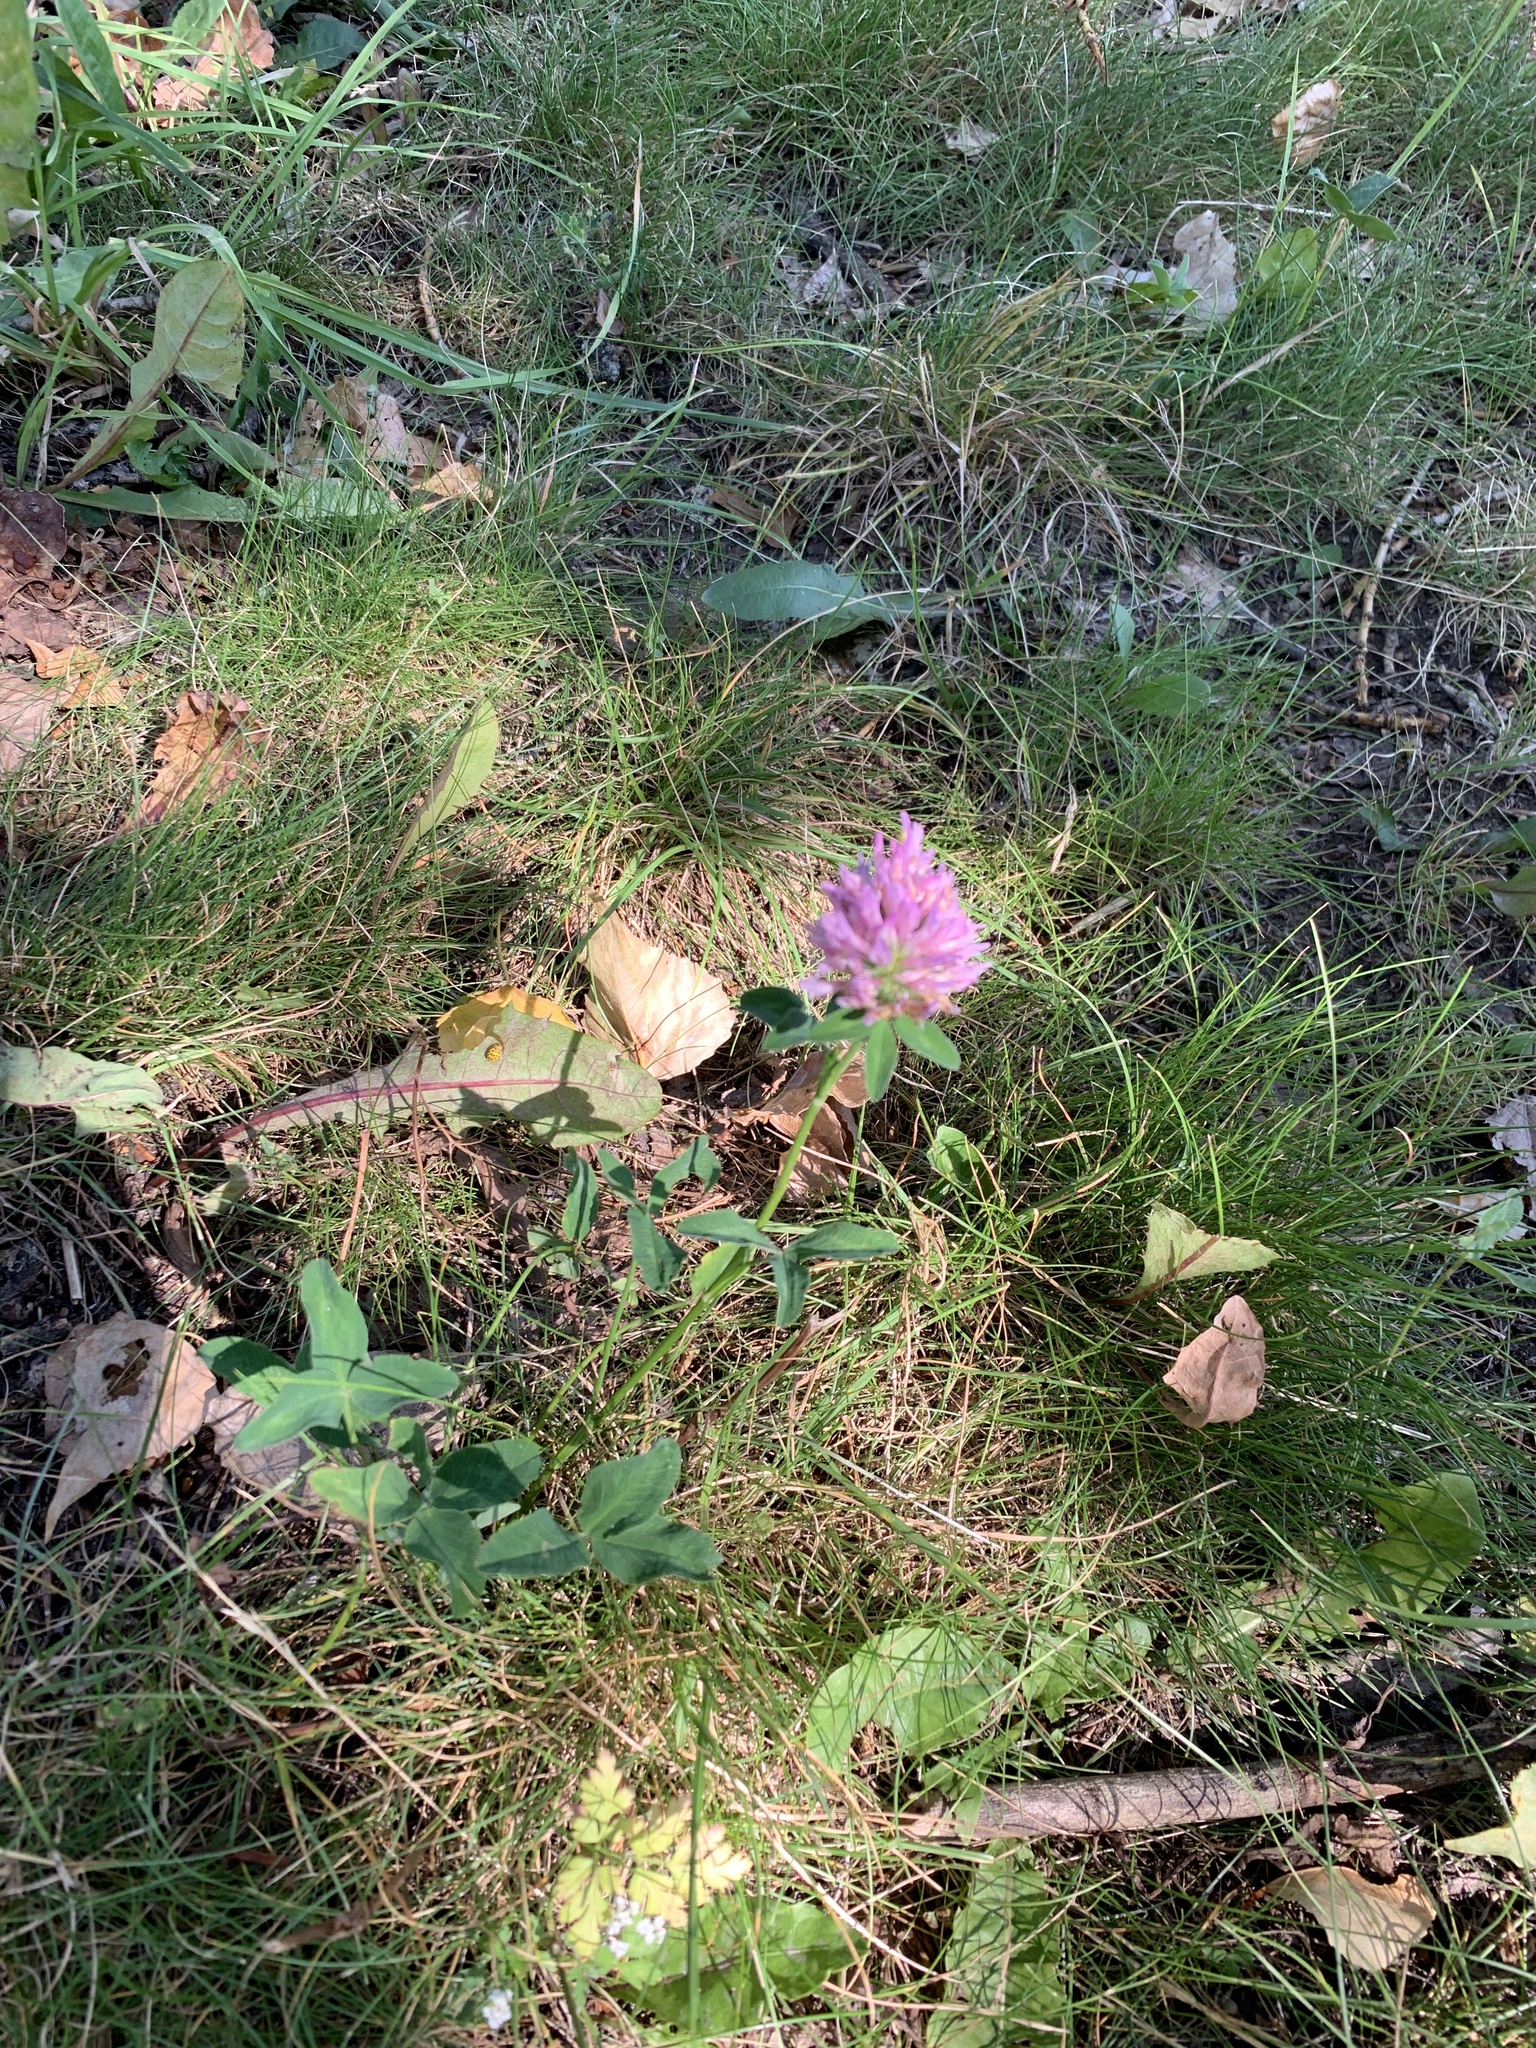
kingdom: Plantae
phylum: Tracheophyta
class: Magnoliopsida
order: Fabales
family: Fabaceae
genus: Trifolium
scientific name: Trifolium pratense
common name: Red clover
